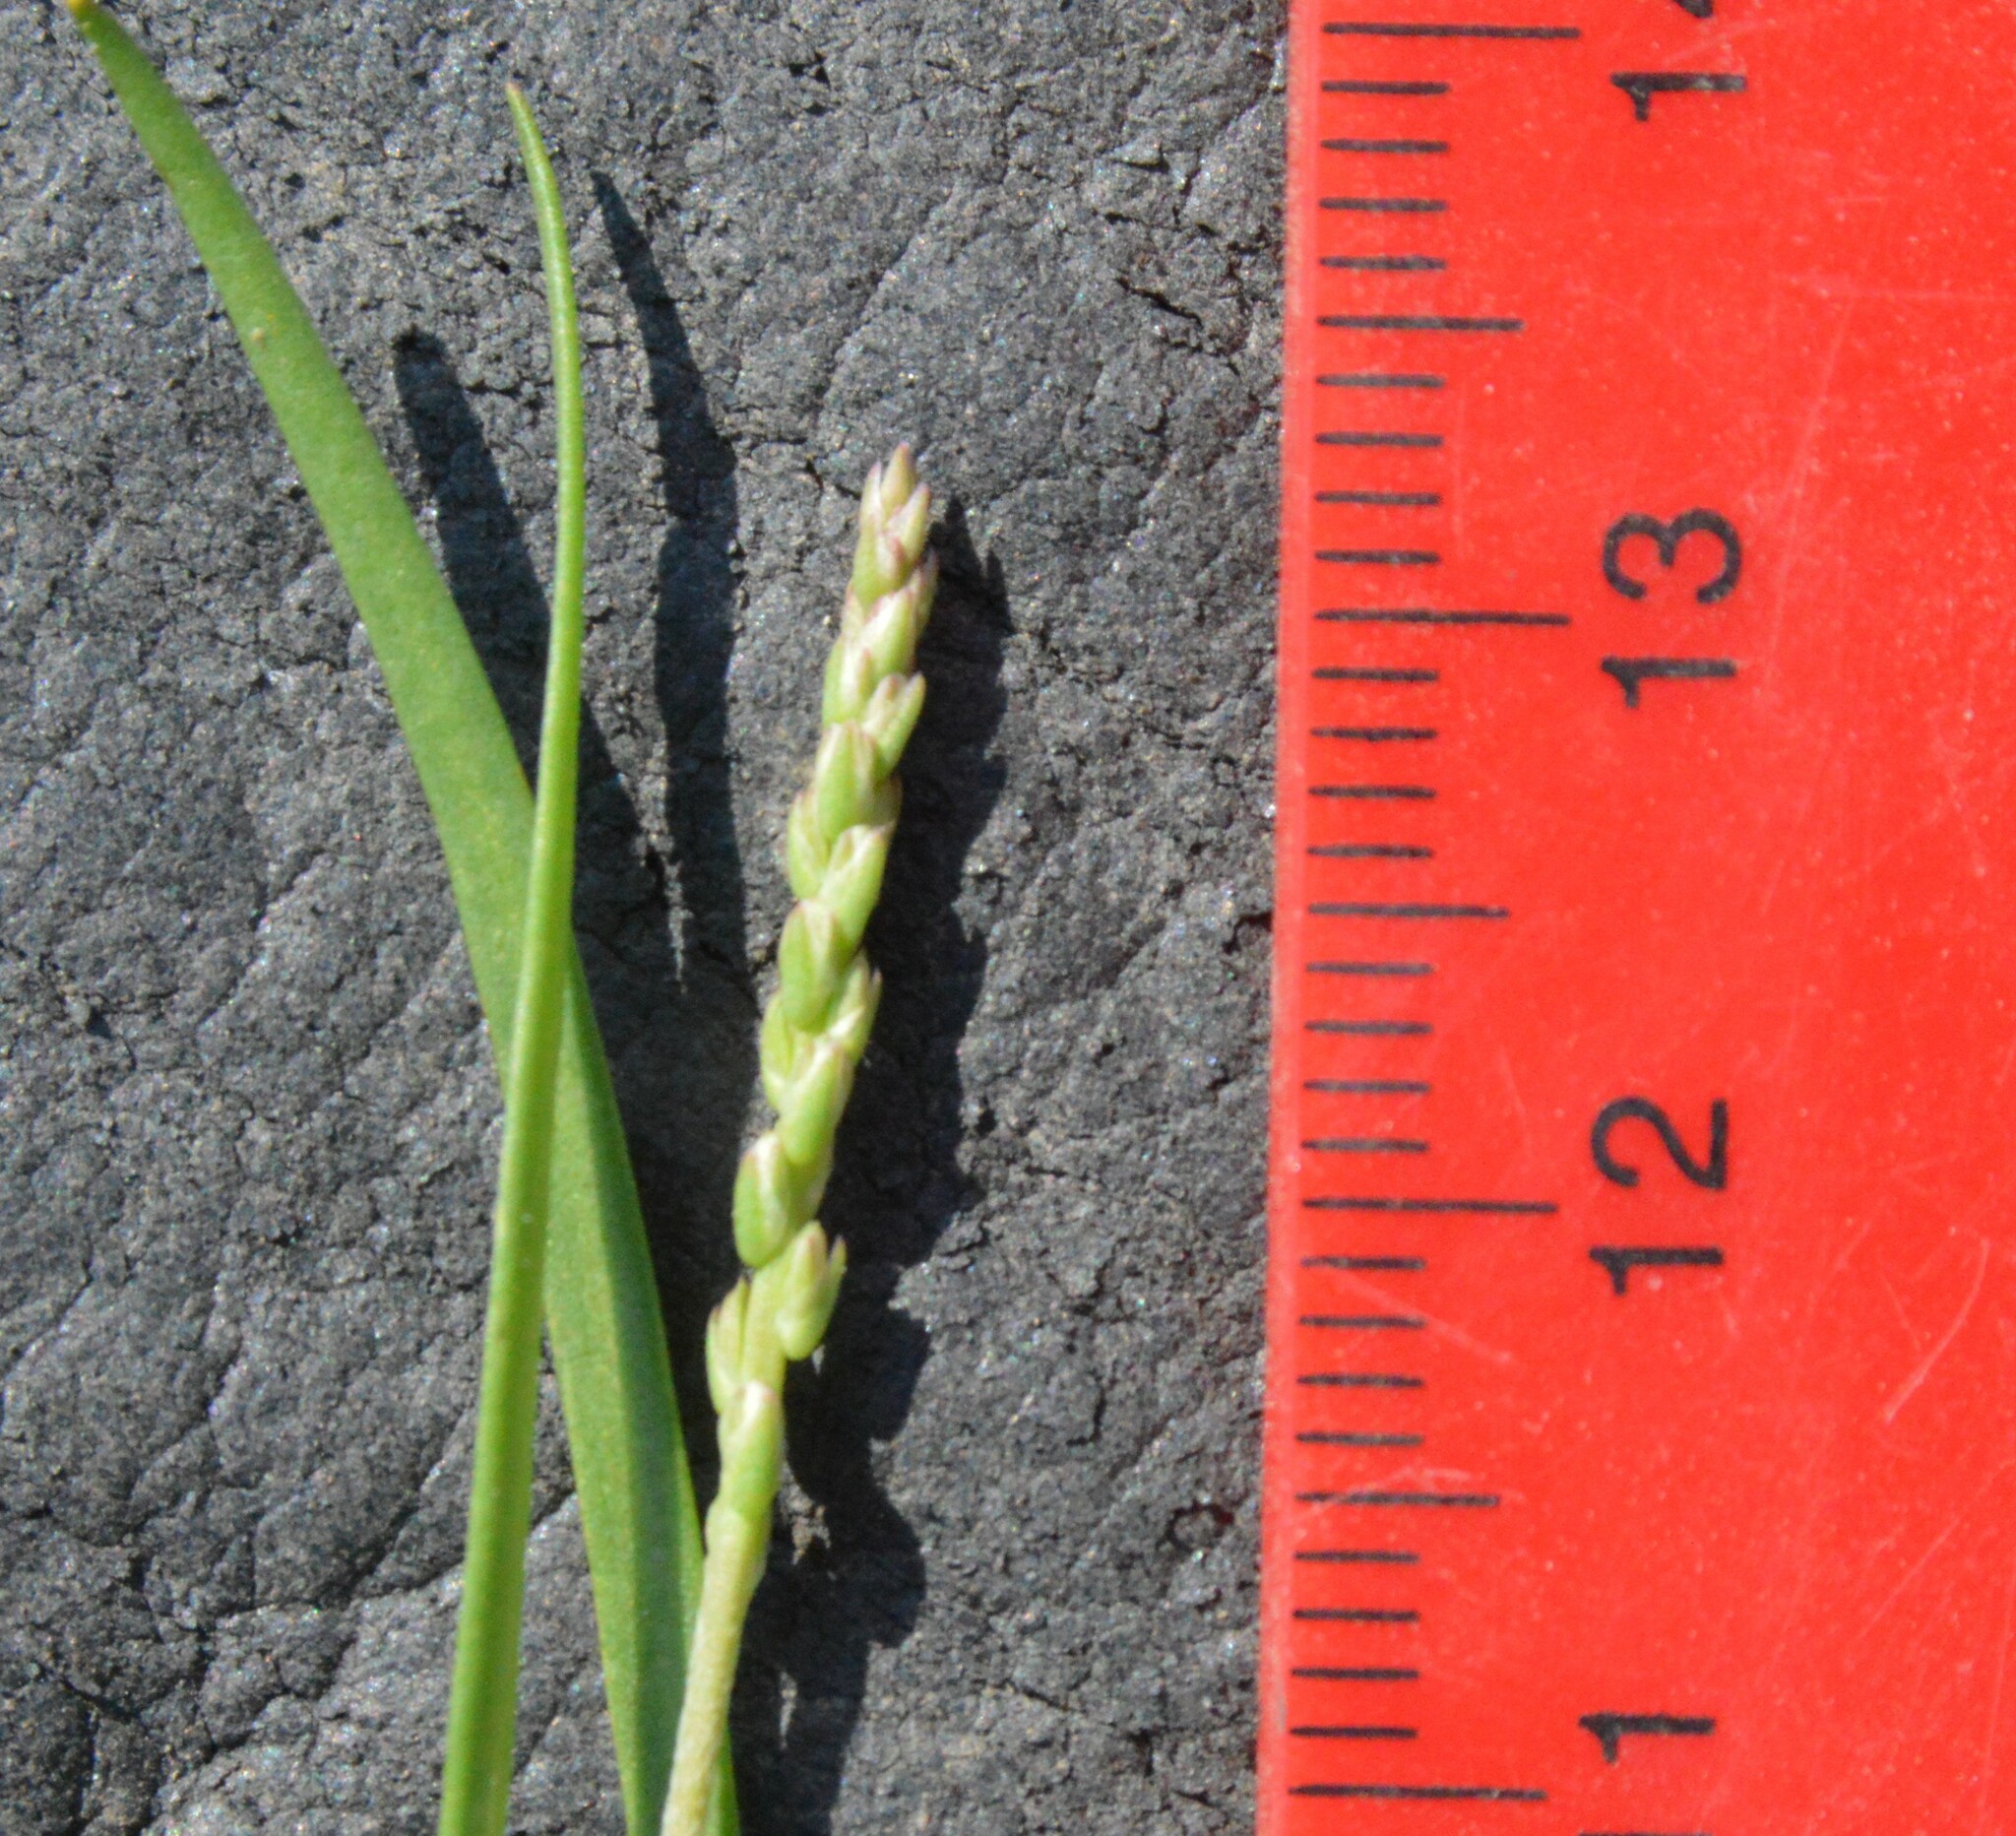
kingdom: Plantae
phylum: Tracheophyta
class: Magnoliopsida
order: Lamiales
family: Plantaginaceae
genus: Plantago
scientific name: Plantago heterophylla
